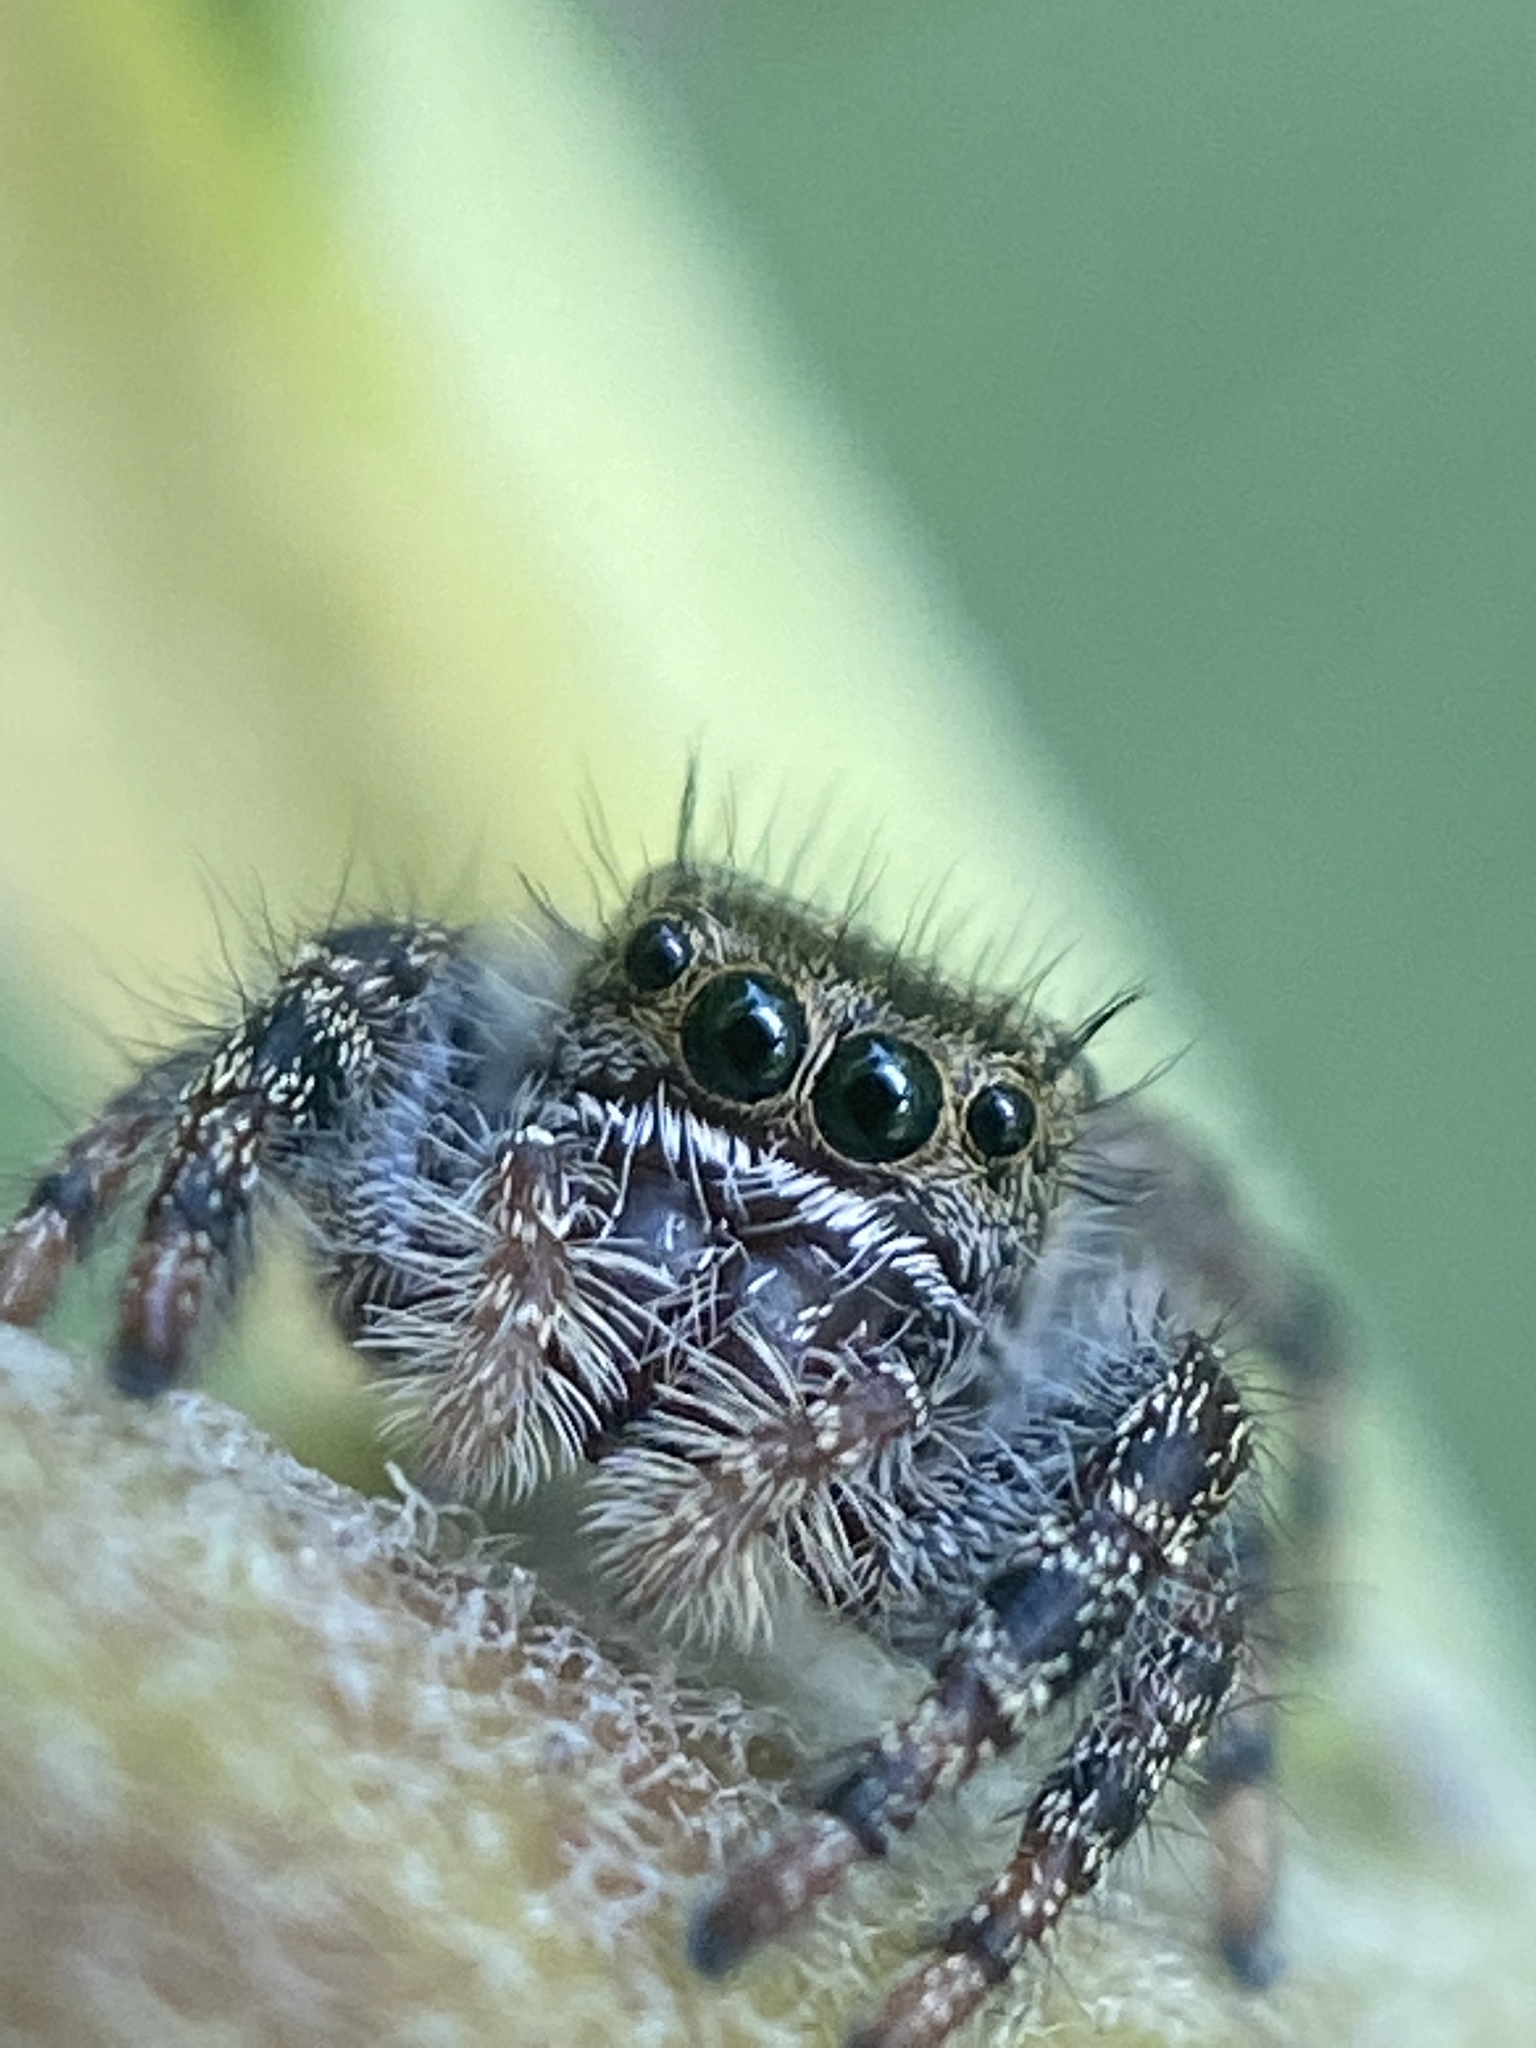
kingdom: Animalia
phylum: Arthropoda
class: Arachnida
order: Araneae
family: Salticidae
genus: Phidippus
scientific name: Phidippus audax
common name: Bold jumper
